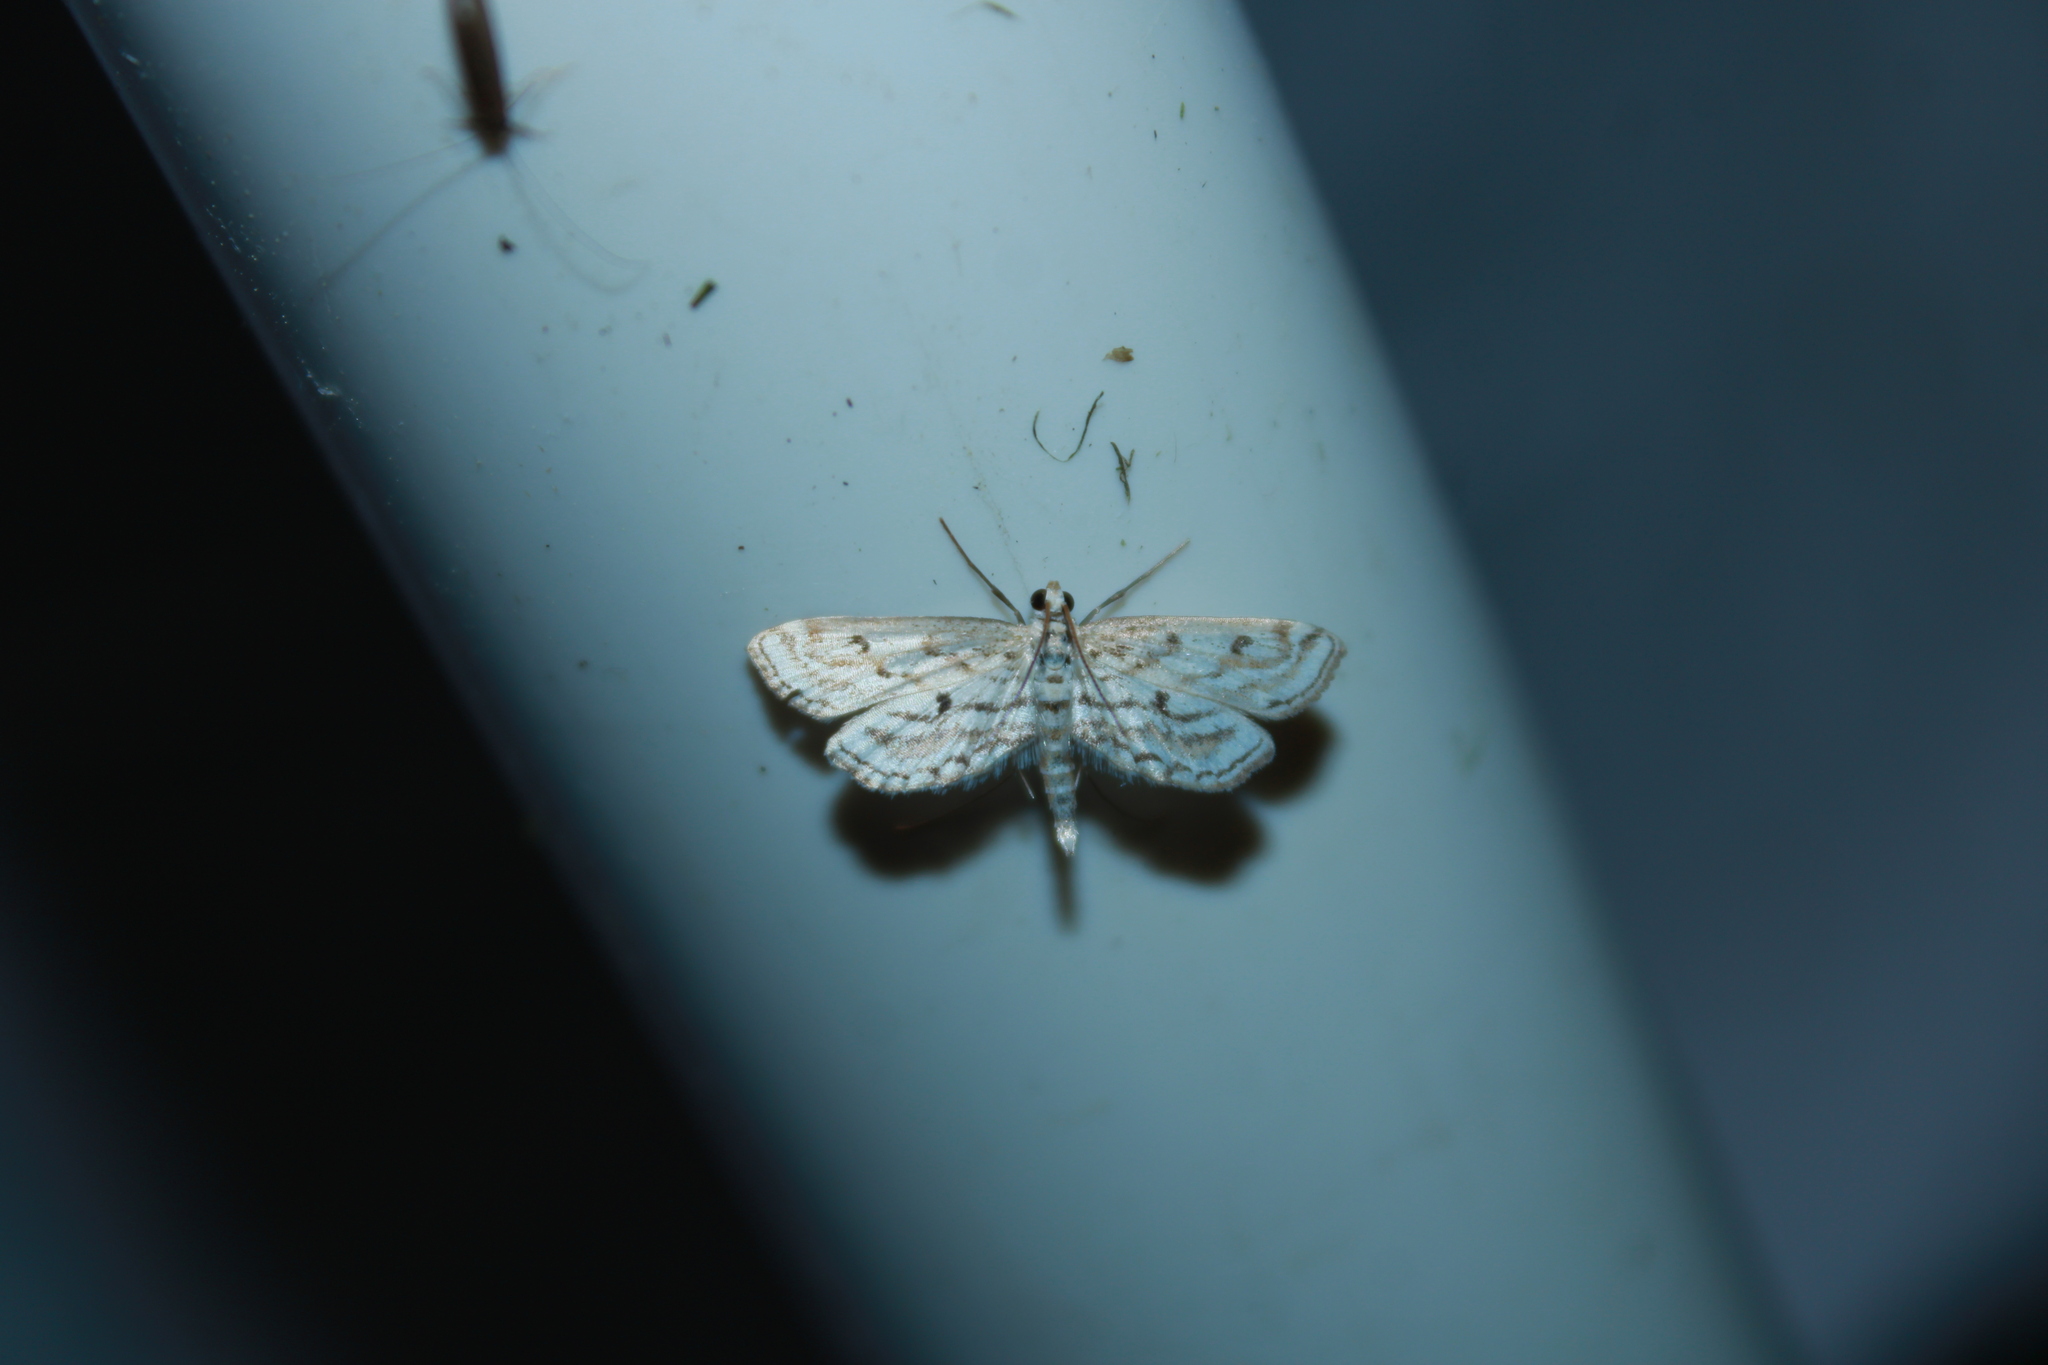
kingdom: Animalia
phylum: Arthropoda
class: Insecta
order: Lepidoptera
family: Crambidae
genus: Parapoynx
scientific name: Parapoynx allionealis
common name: Bladderwort casemaker
